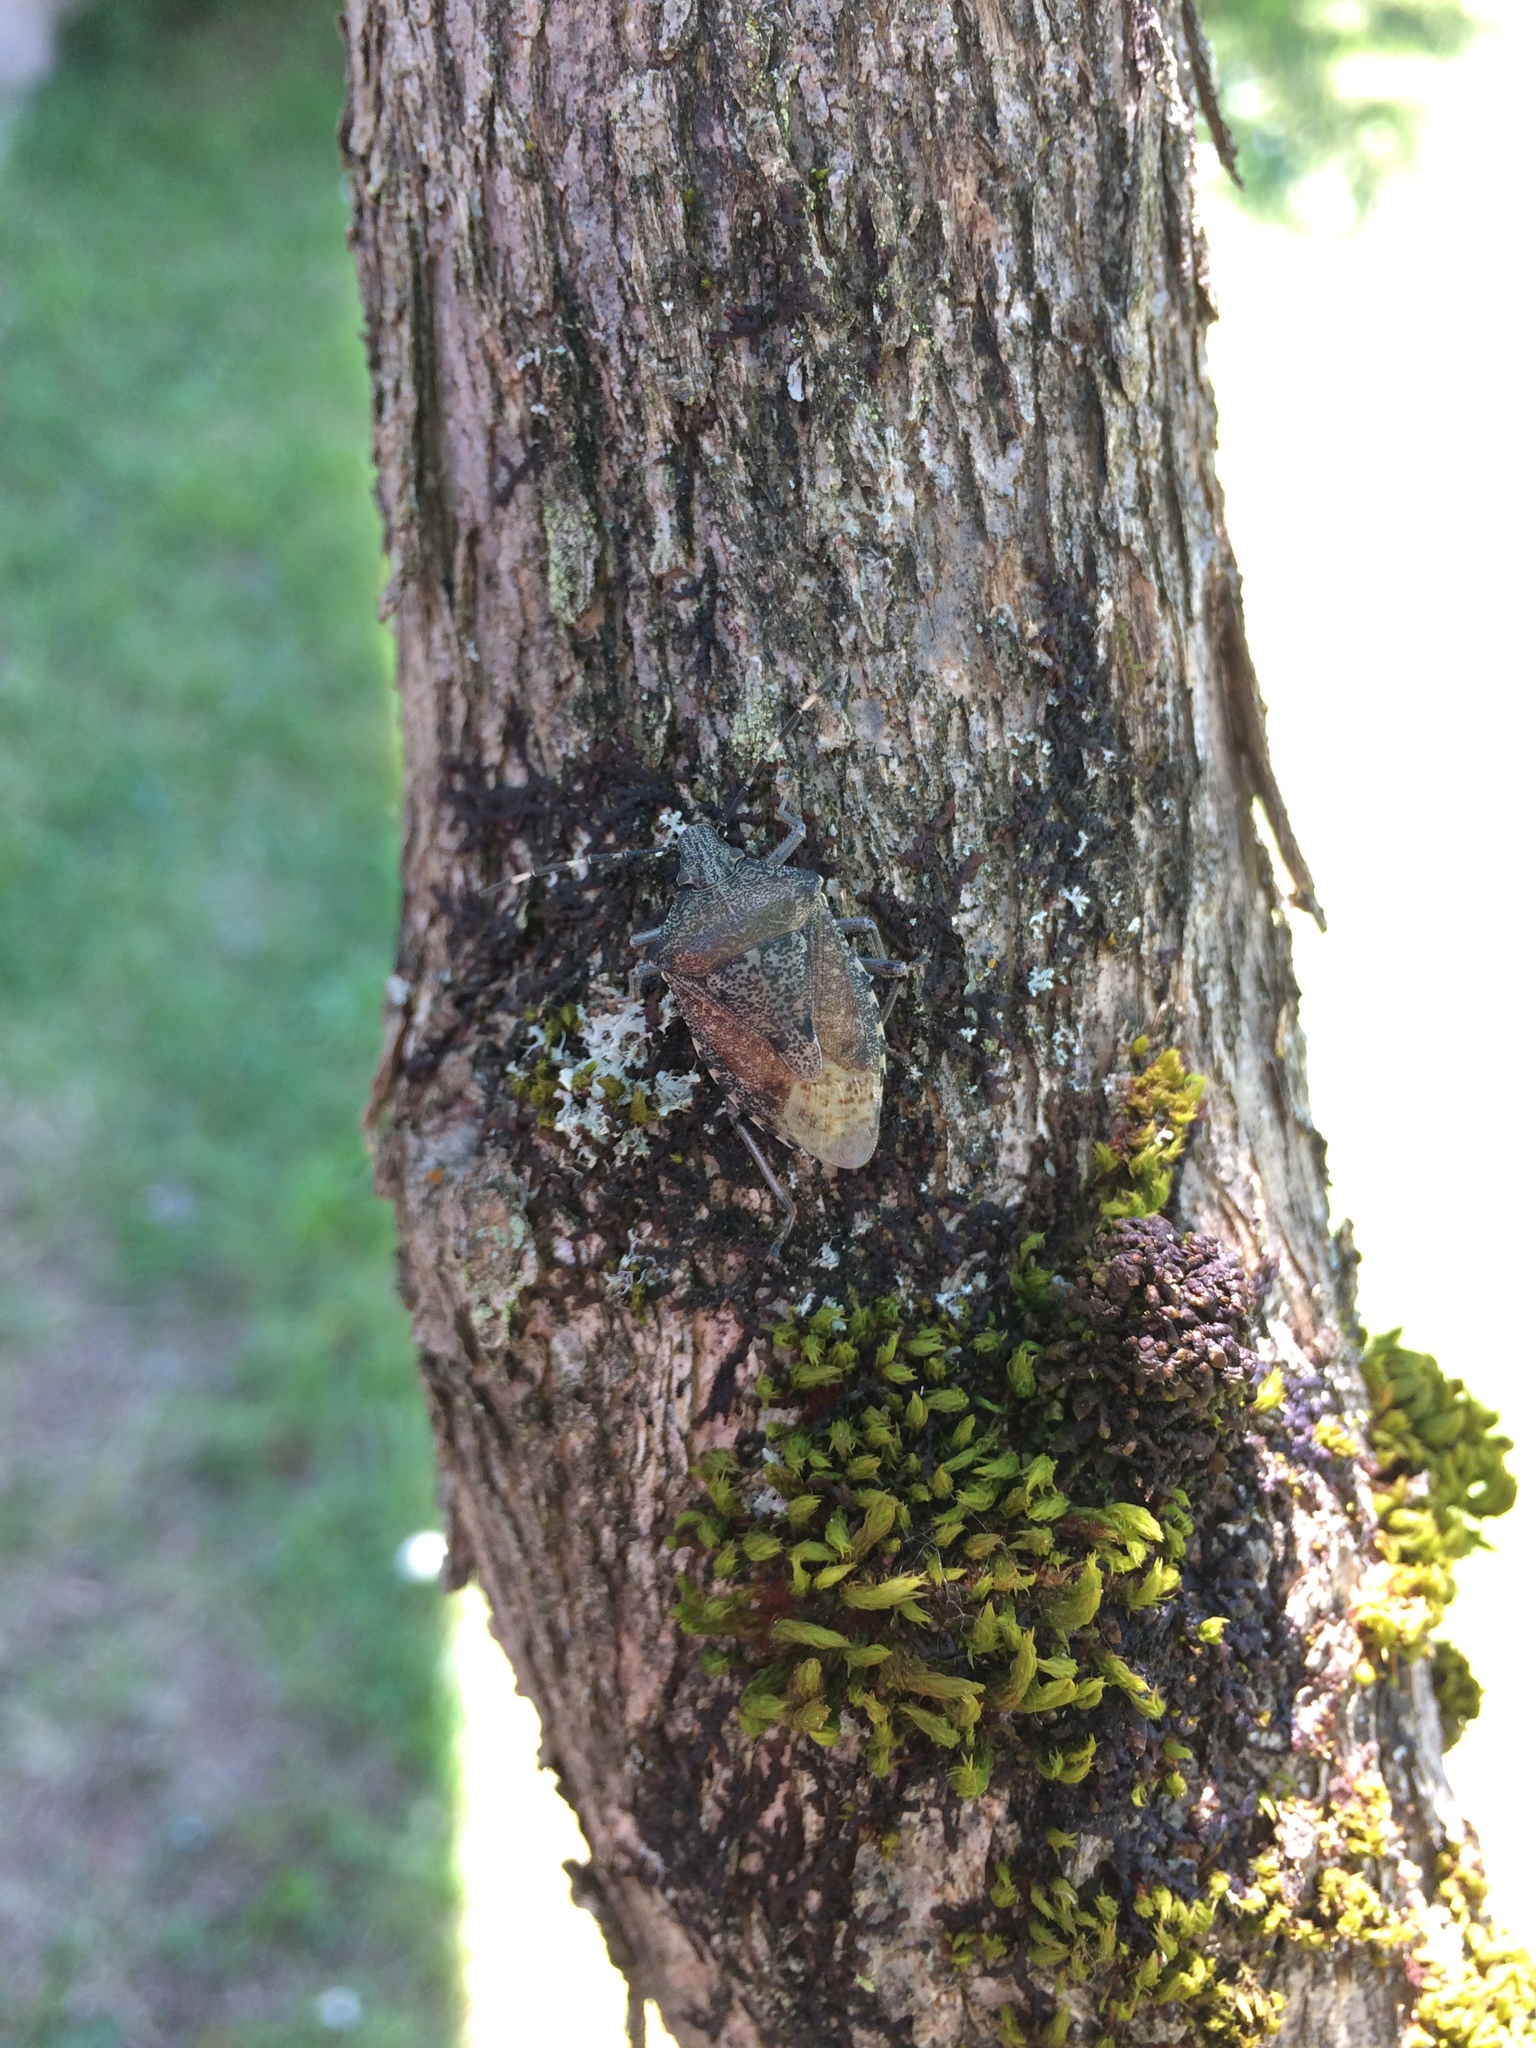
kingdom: Animalia
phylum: Arthropoda
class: Insecta
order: Hemiptera
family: Pentatomidae
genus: Rhaphigaster
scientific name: Rhaphigaster nebulosa
